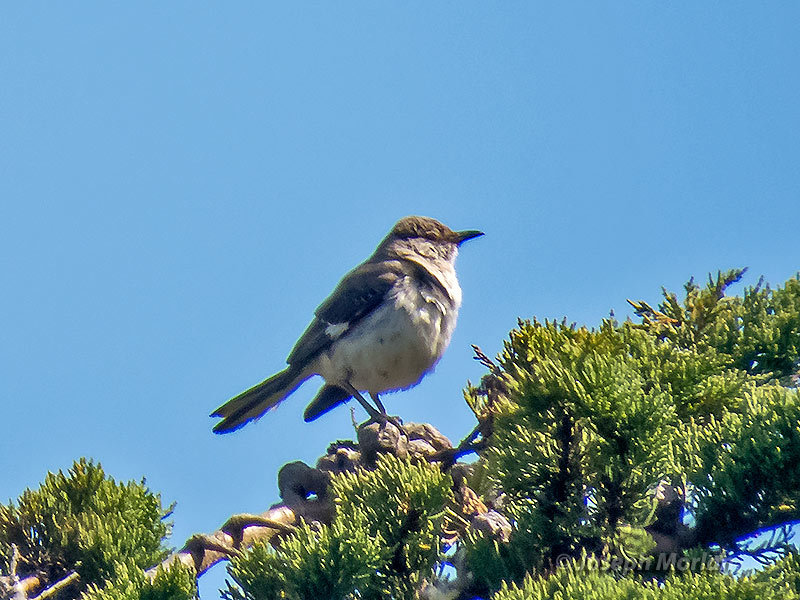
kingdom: Animalia
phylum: Chordata
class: Aves
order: Passeriformes
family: Mimidae
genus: Mimus
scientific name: Mimus polyglottos
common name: Northern mockingbird
